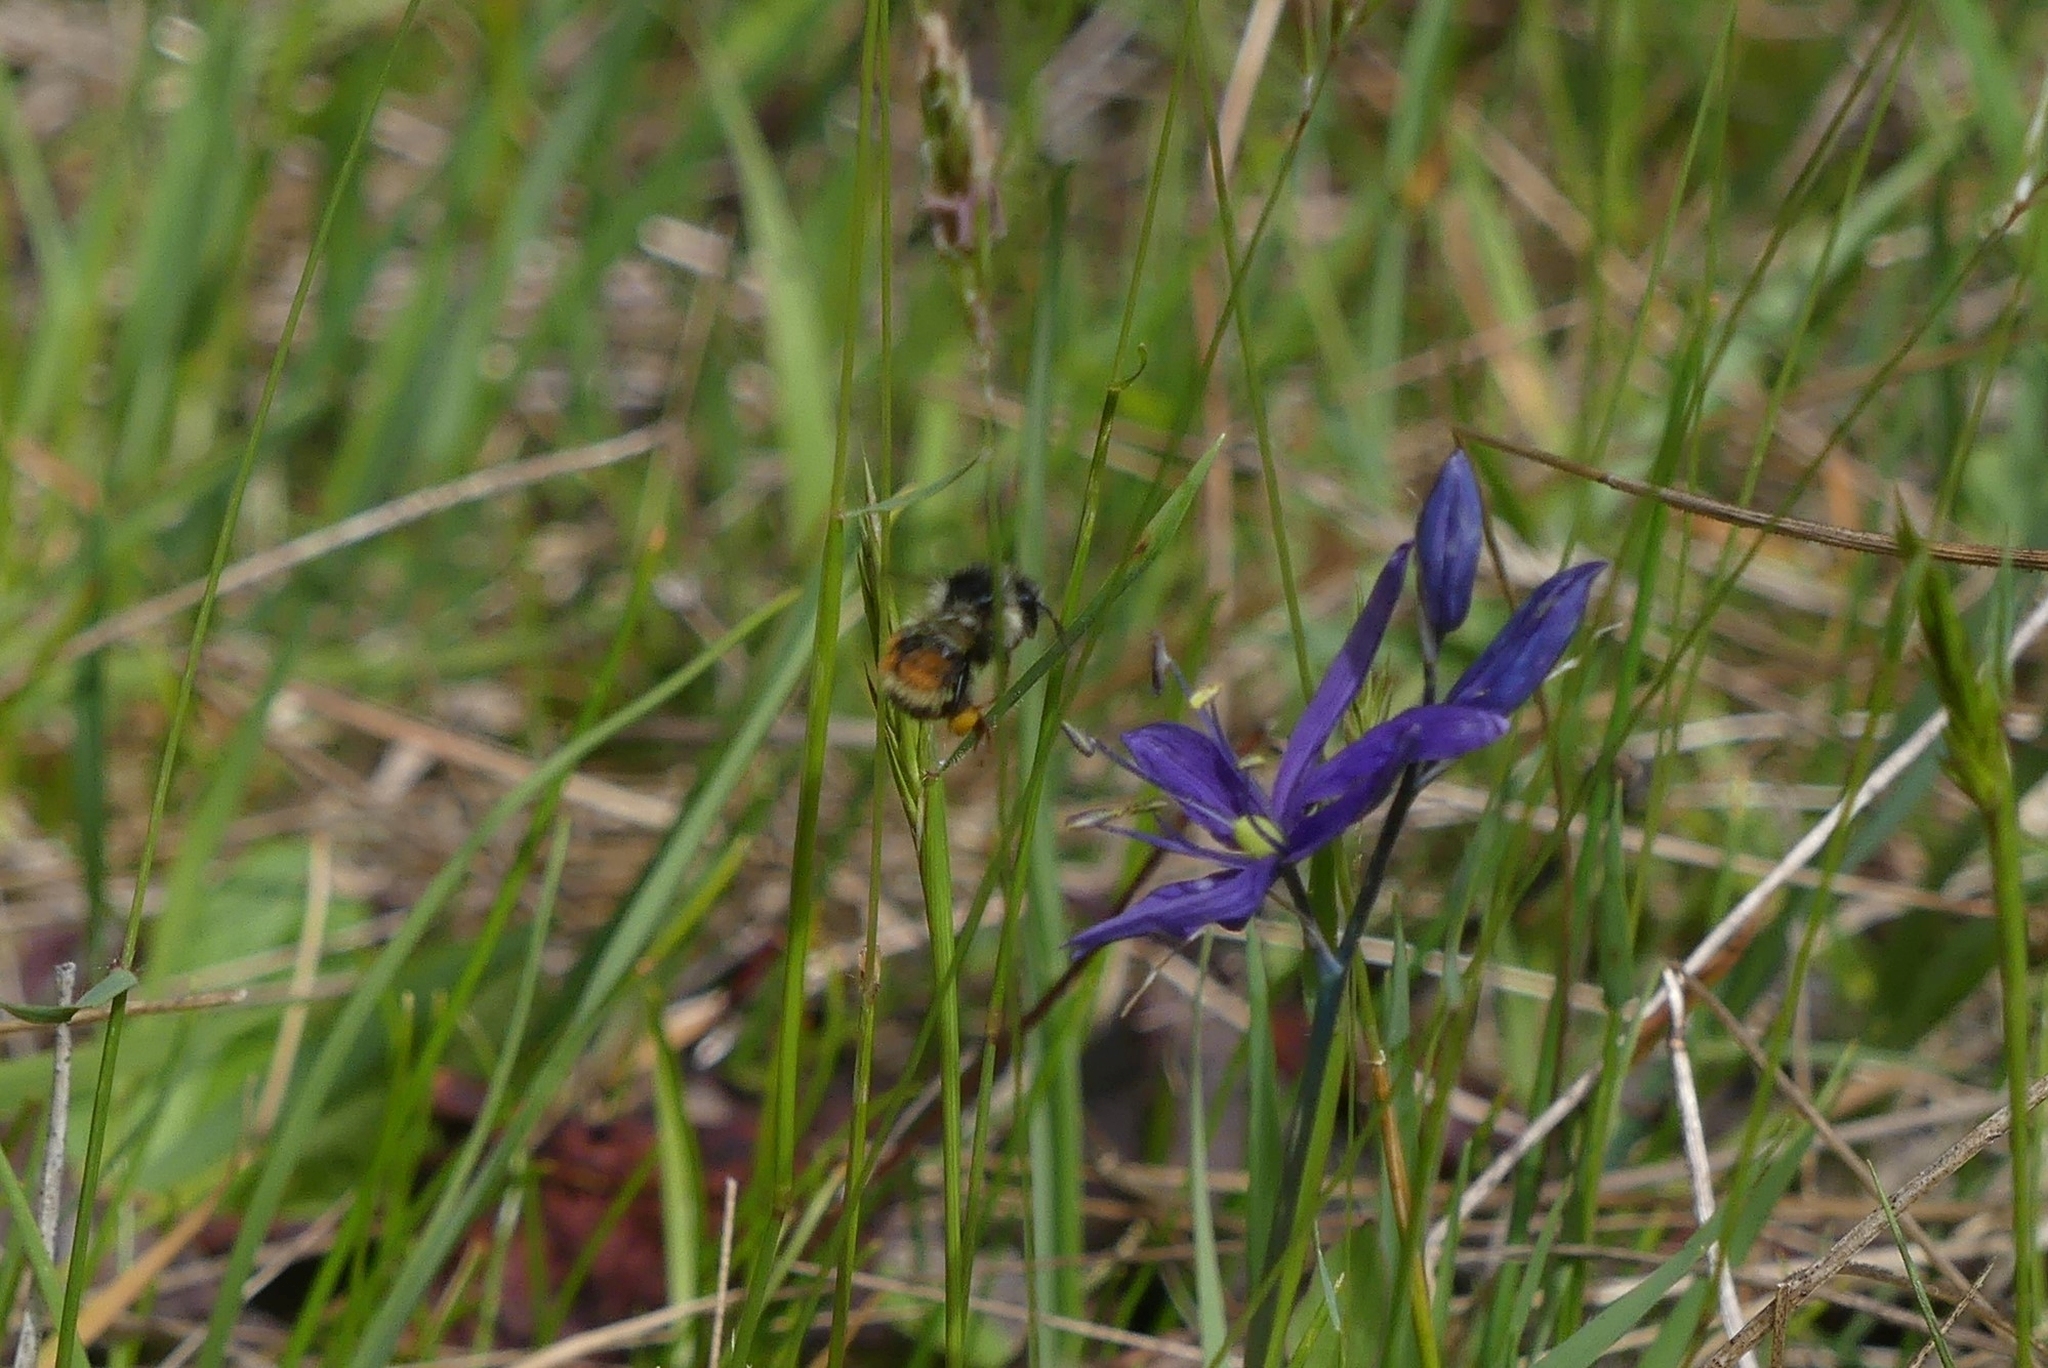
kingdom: Animalia
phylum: Arthropoda
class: Insecta
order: Hymenoptera
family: Apidae
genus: Bombus
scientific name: Bombus vancouverensis
